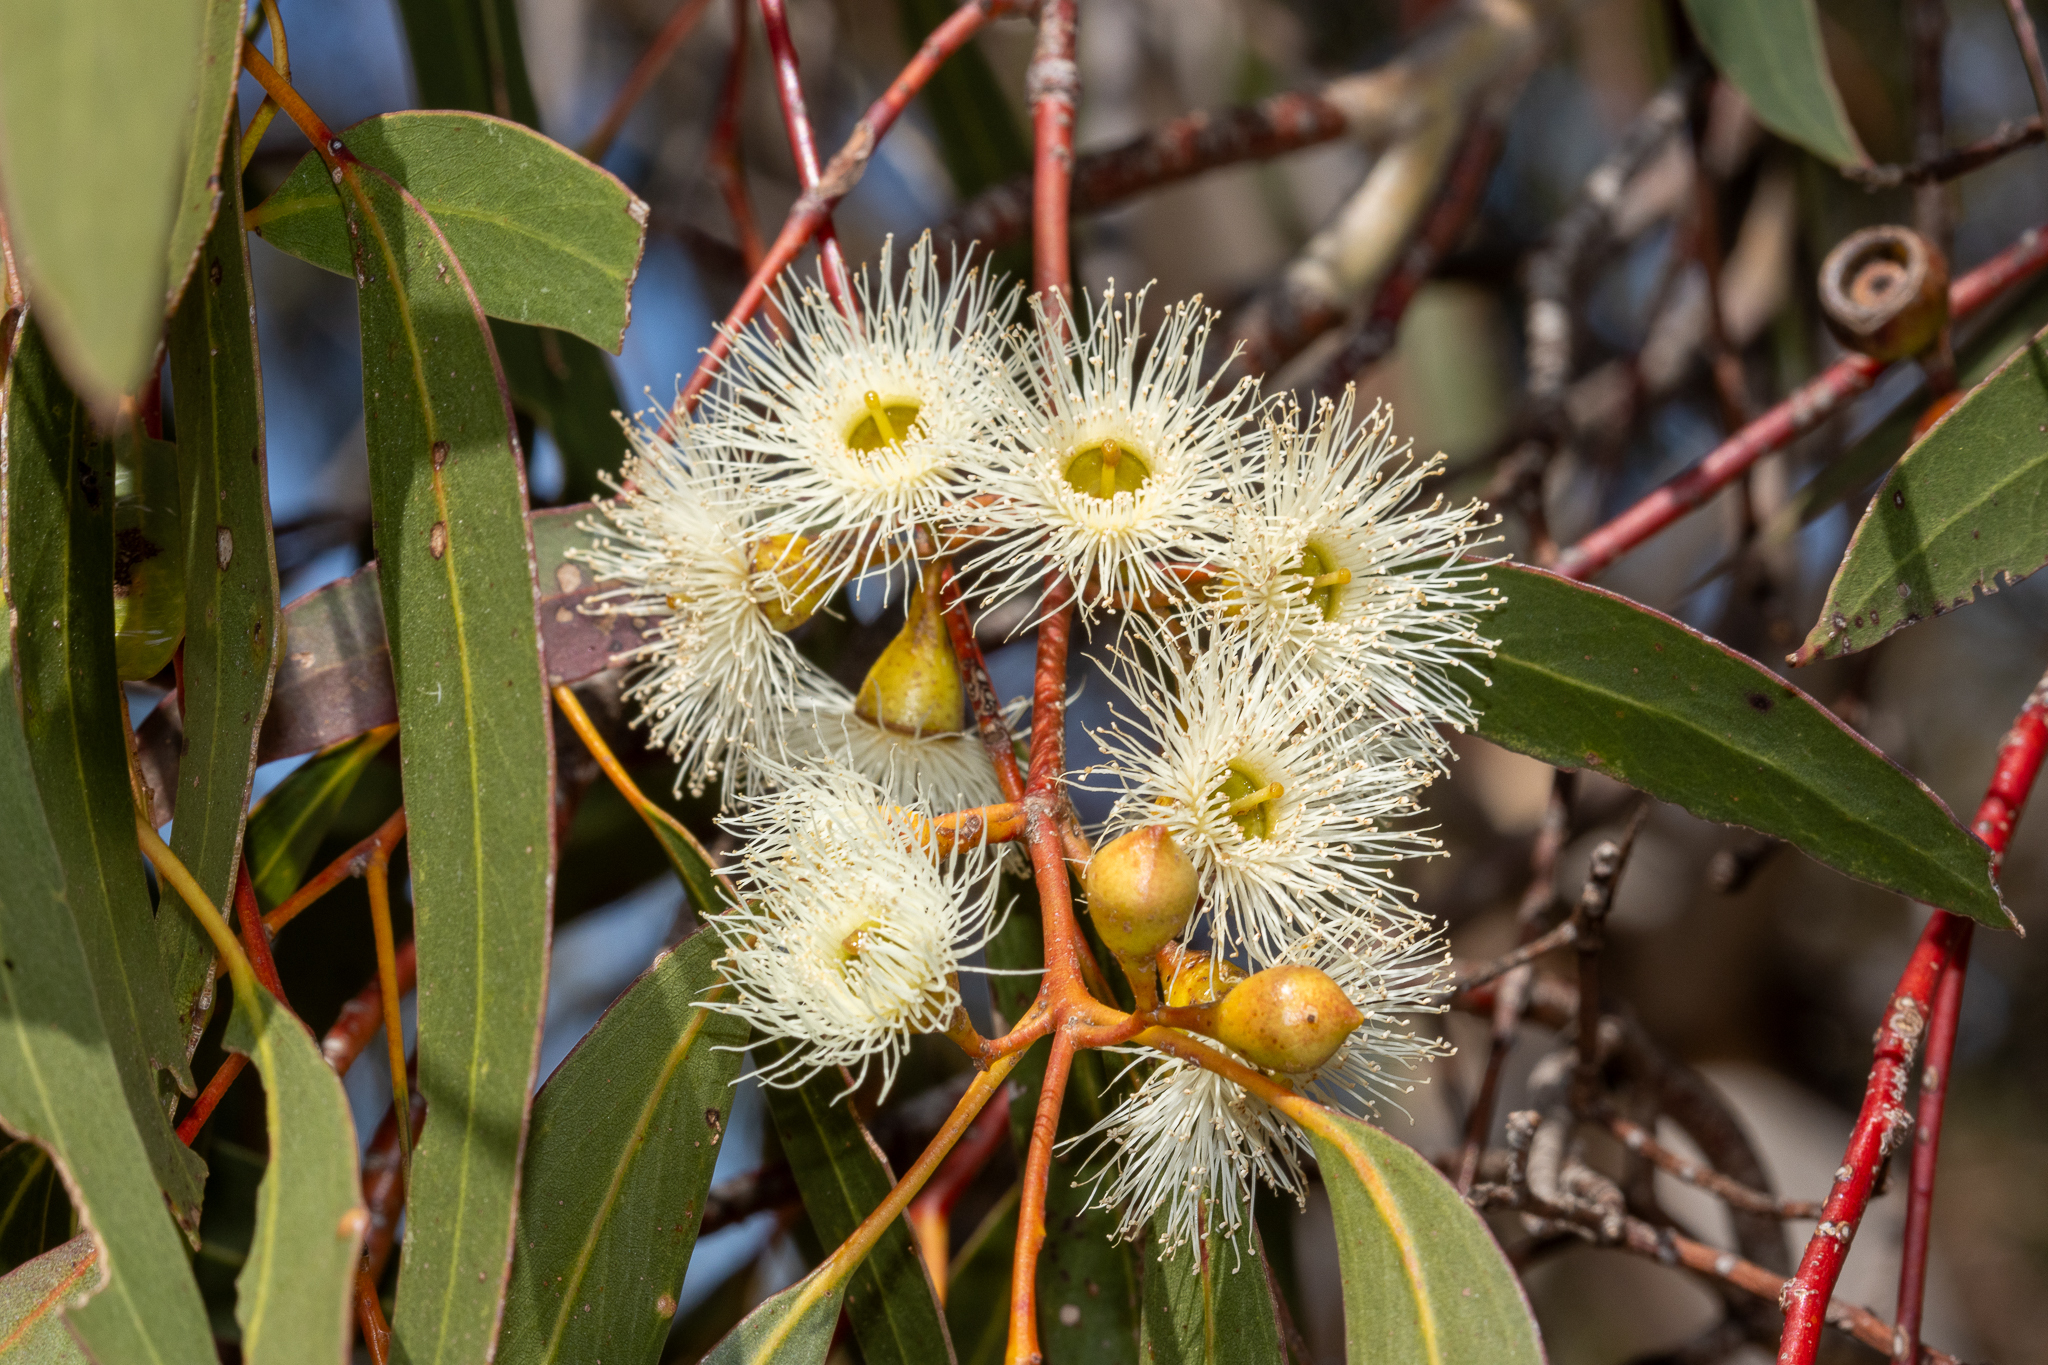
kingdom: Plantae
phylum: Tracheophyta
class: Magnoliopsida
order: Myrtales
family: Myrtaceae
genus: Eucalyptus
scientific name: Eucalyptus leucoxylon
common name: Blue gum
